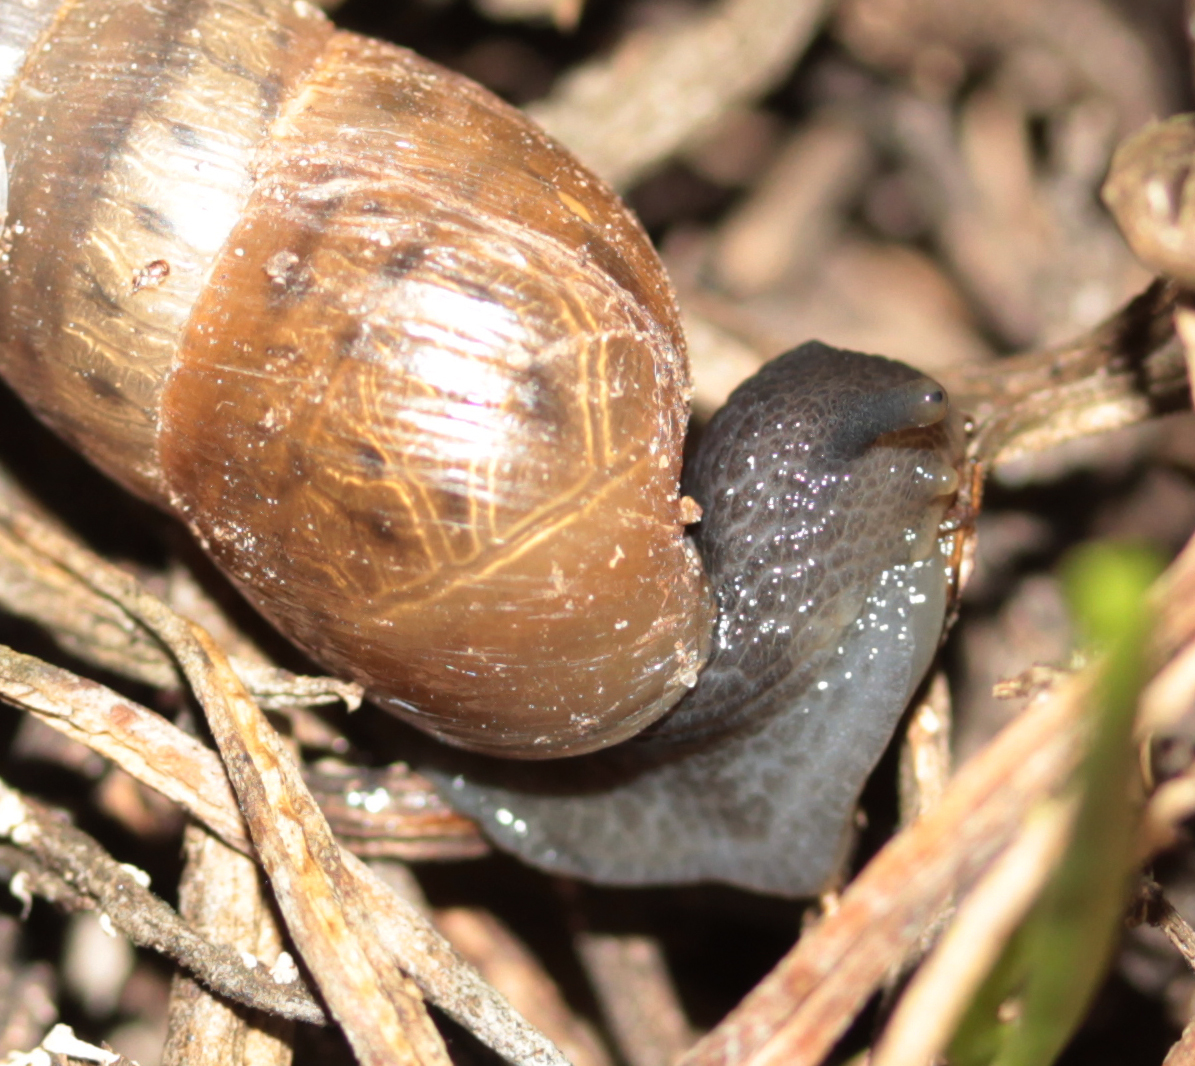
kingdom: Animalia
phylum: Mollusca
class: Gastropoda
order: Stylommatophora
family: Achatinidae
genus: Rumina
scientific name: Rumina decollata
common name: Decollate snail
